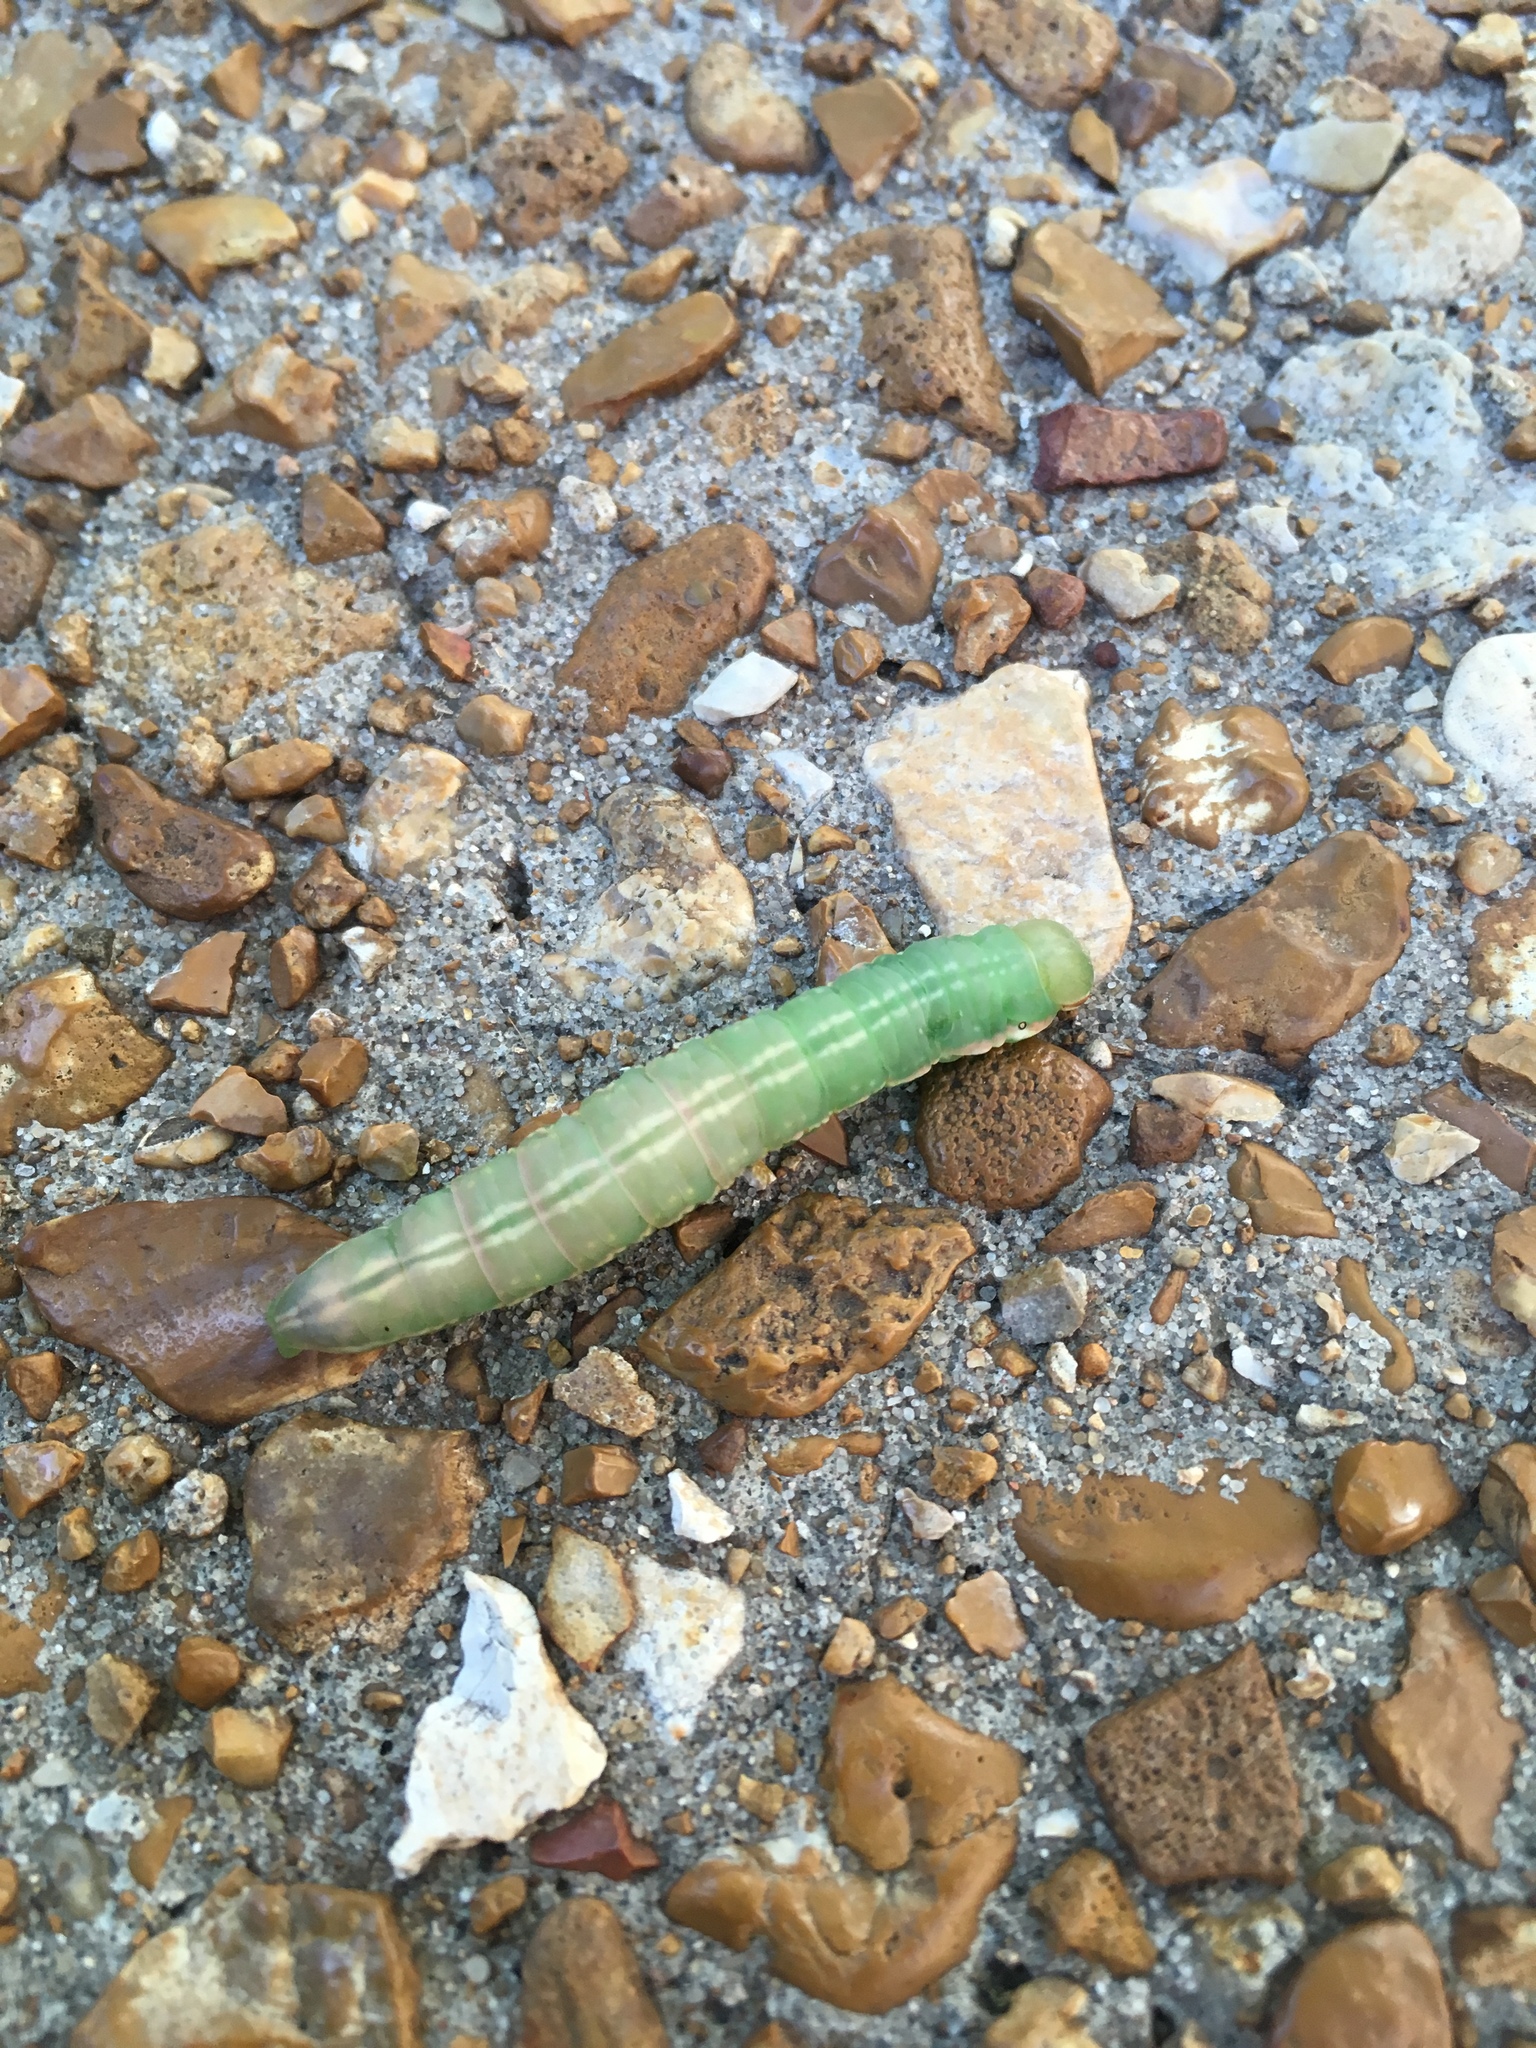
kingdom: Animalia
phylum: Arthropoda
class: Insecta
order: Lepidoptera
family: Notodontidae
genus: Peridea
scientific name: Peridea angulosa
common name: Angulose prominent
